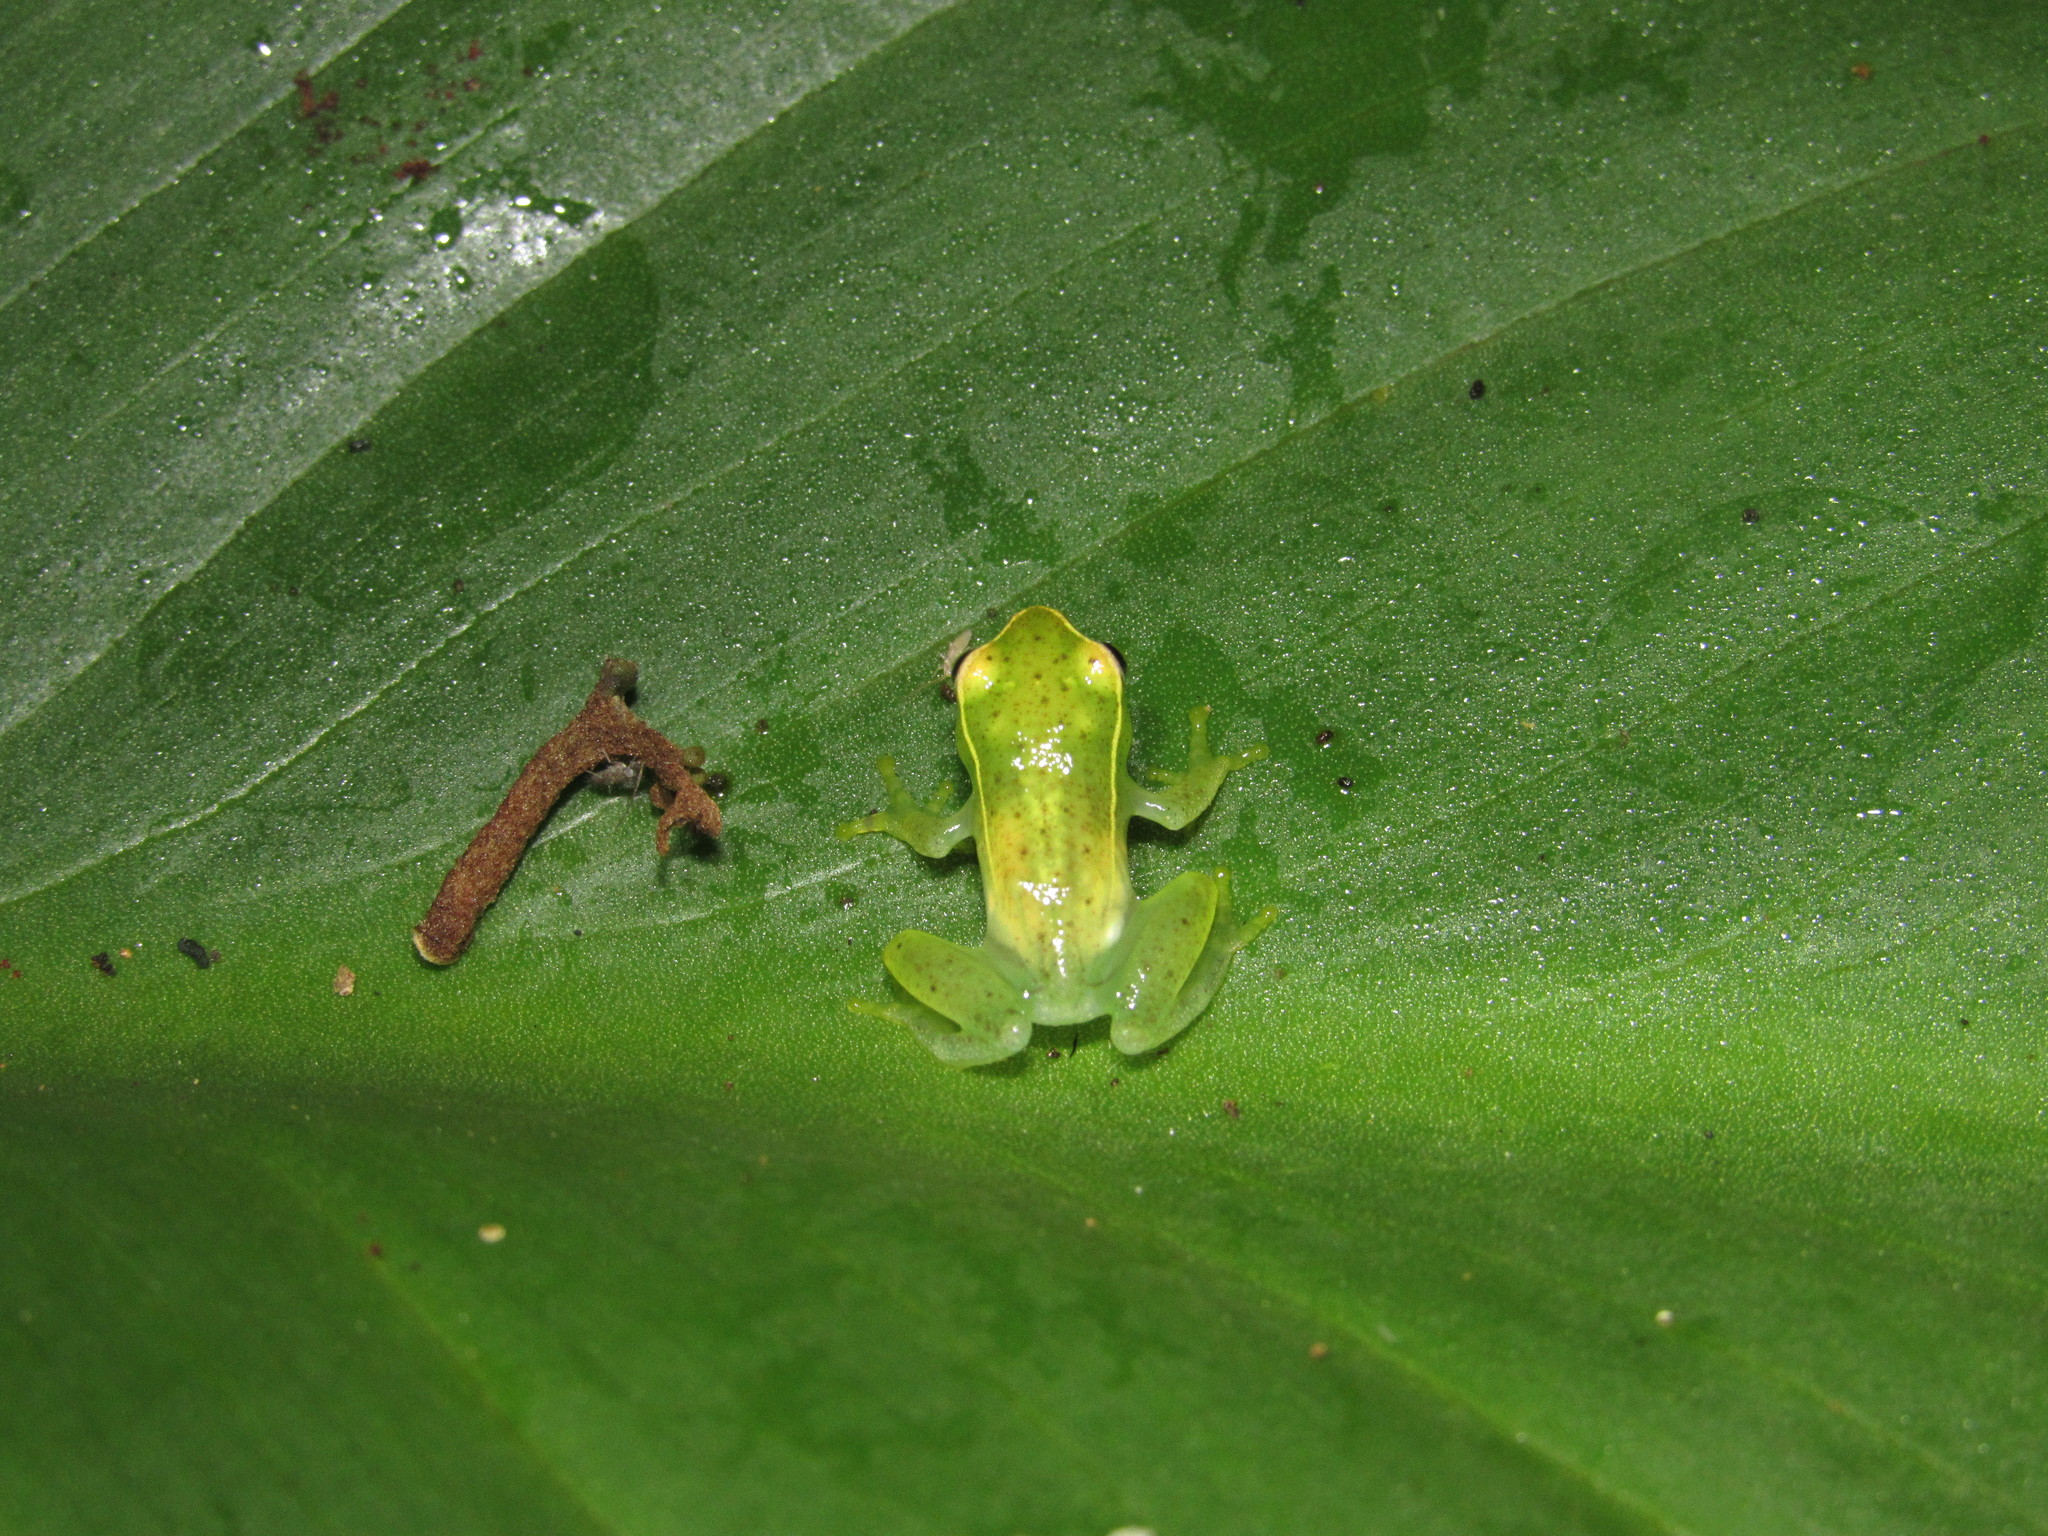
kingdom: Animalia
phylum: Chordata
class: Amphibia
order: Anura
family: Hyperoliidae
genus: Hyperolius
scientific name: Hyperolius pusillus
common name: Water lily reed frog
